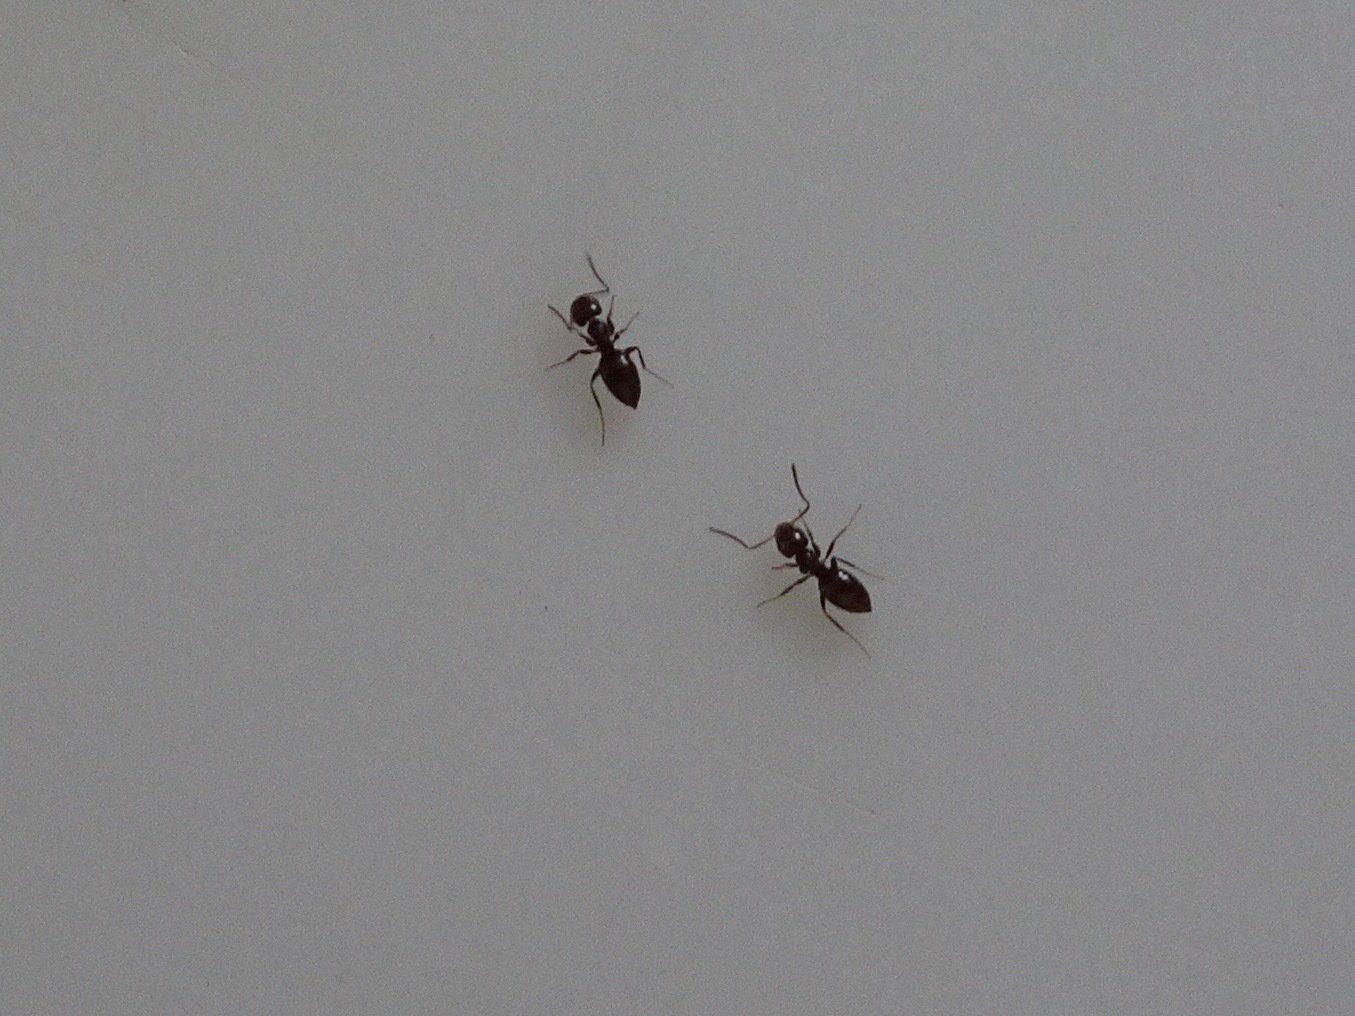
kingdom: Animalia
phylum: Arthropoda
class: Insecta
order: Hymenoptera
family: Formicidae
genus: Brachymyrmex
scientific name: Brachymyrmex patagonicus
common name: Dark rover ant
